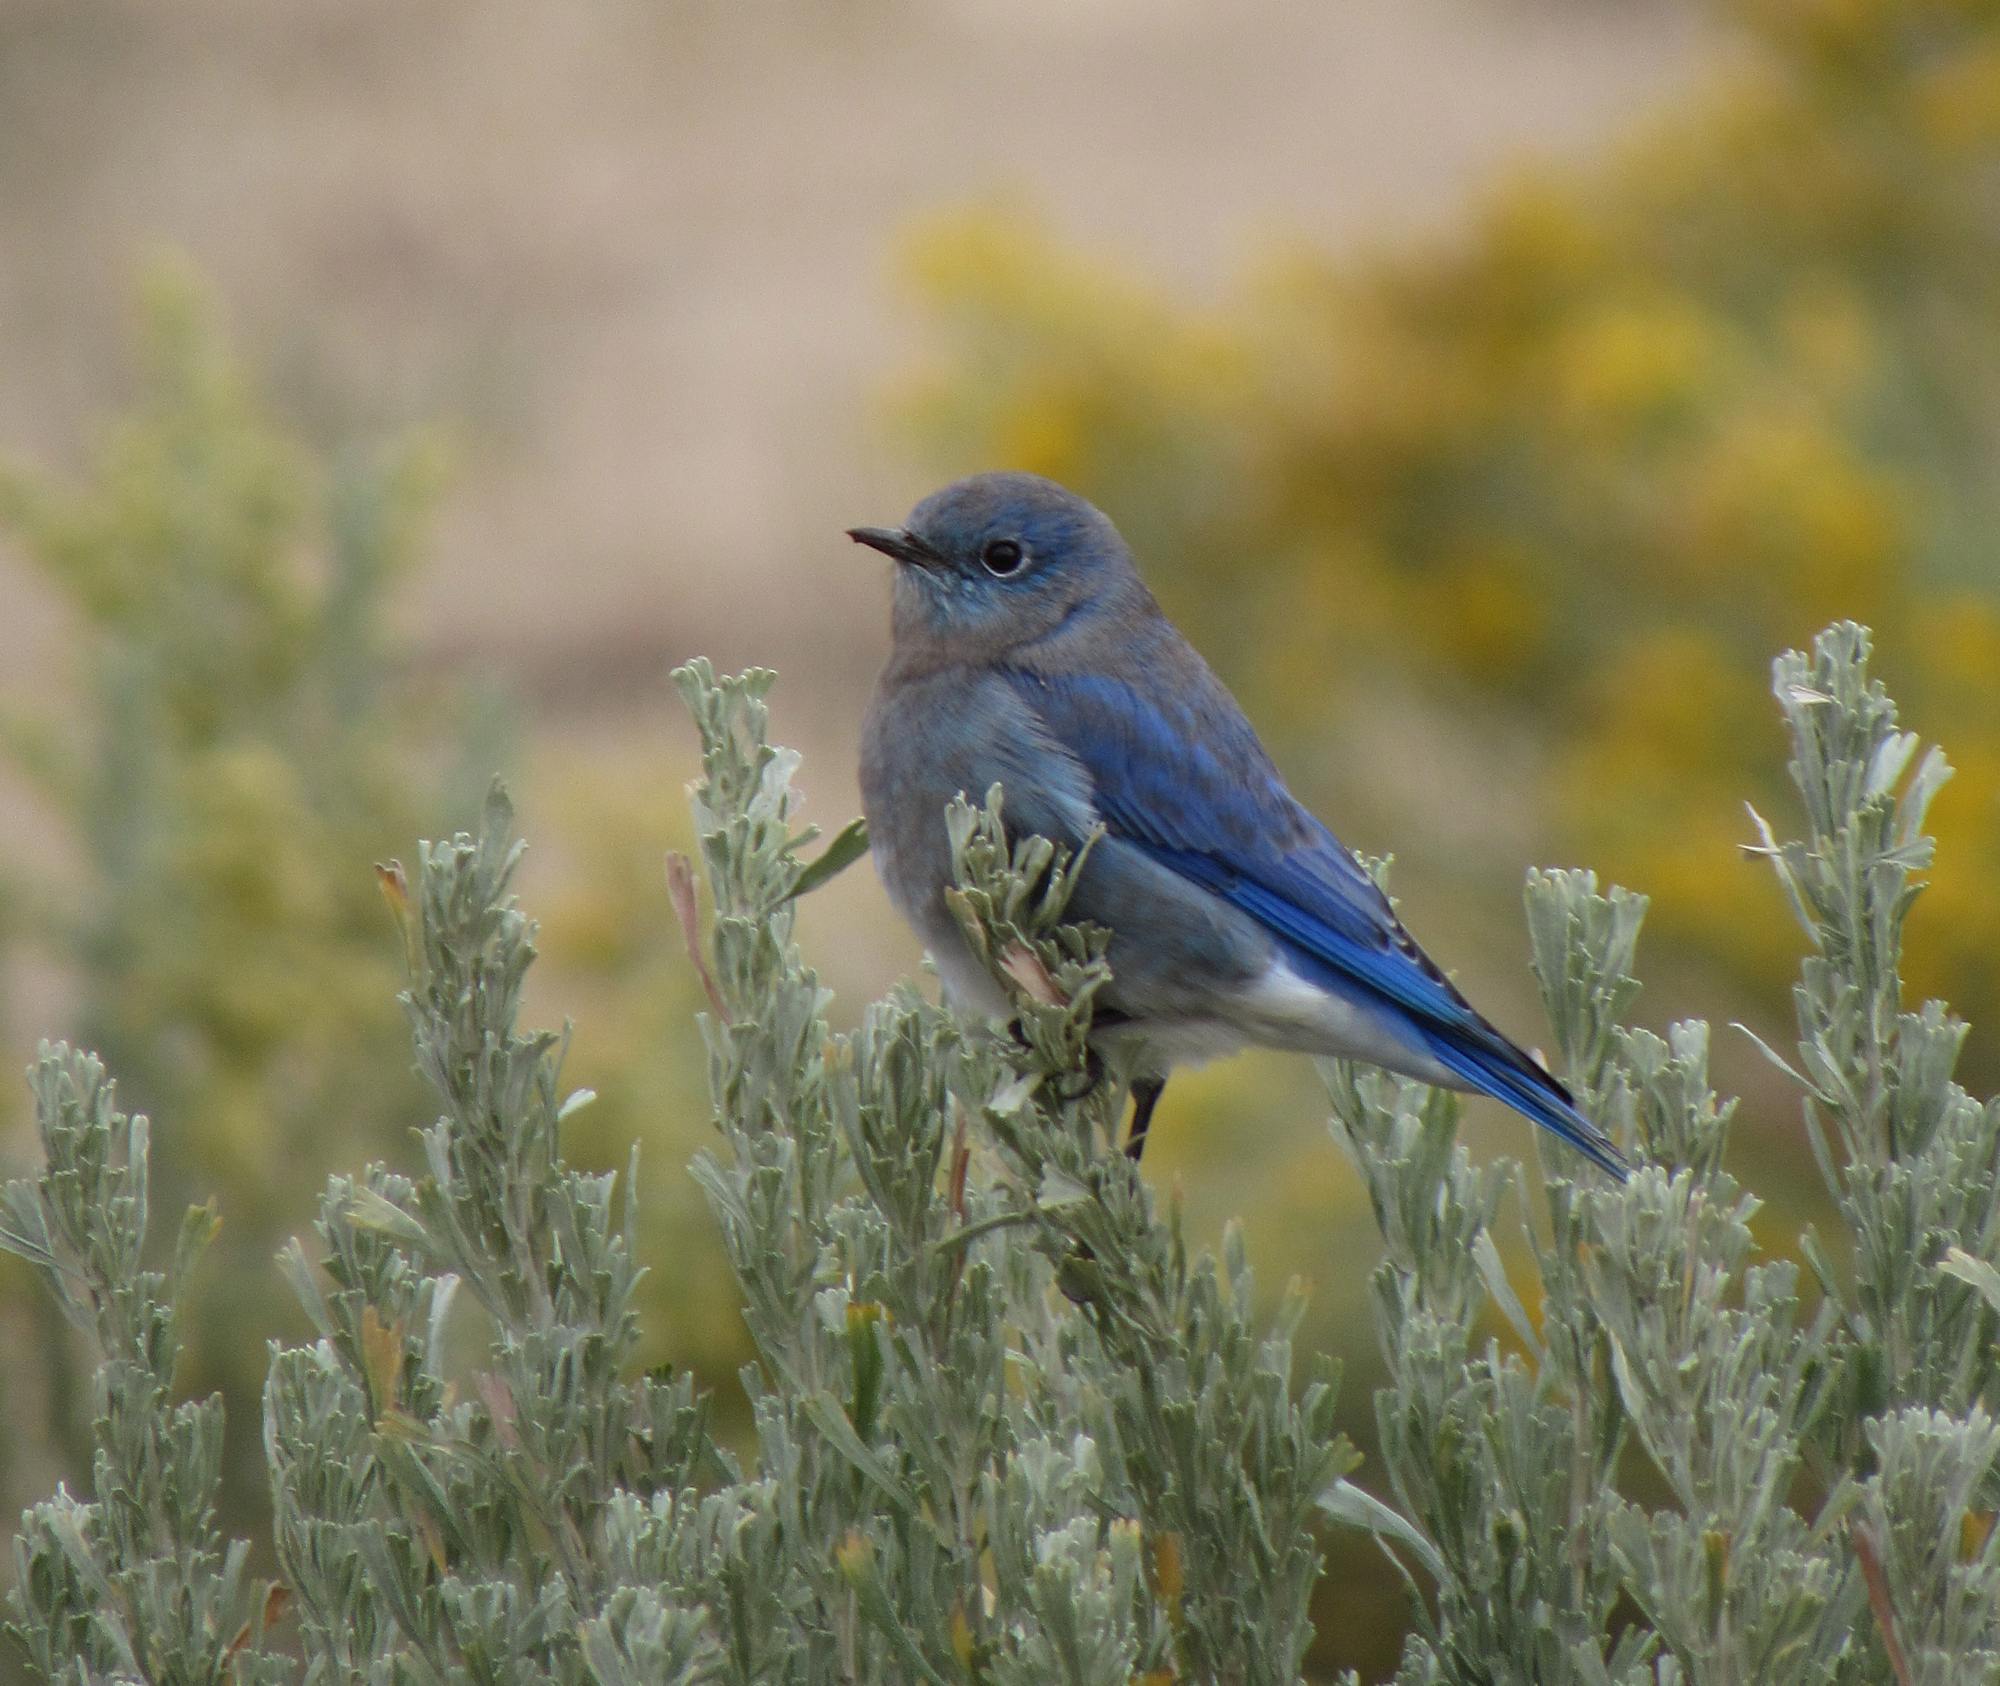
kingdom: Animalia
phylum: Chordata
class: Aves
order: Passeriformes
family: Turdidae
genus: Sialia
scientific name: Sialia mexicana
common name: Western bluebird
